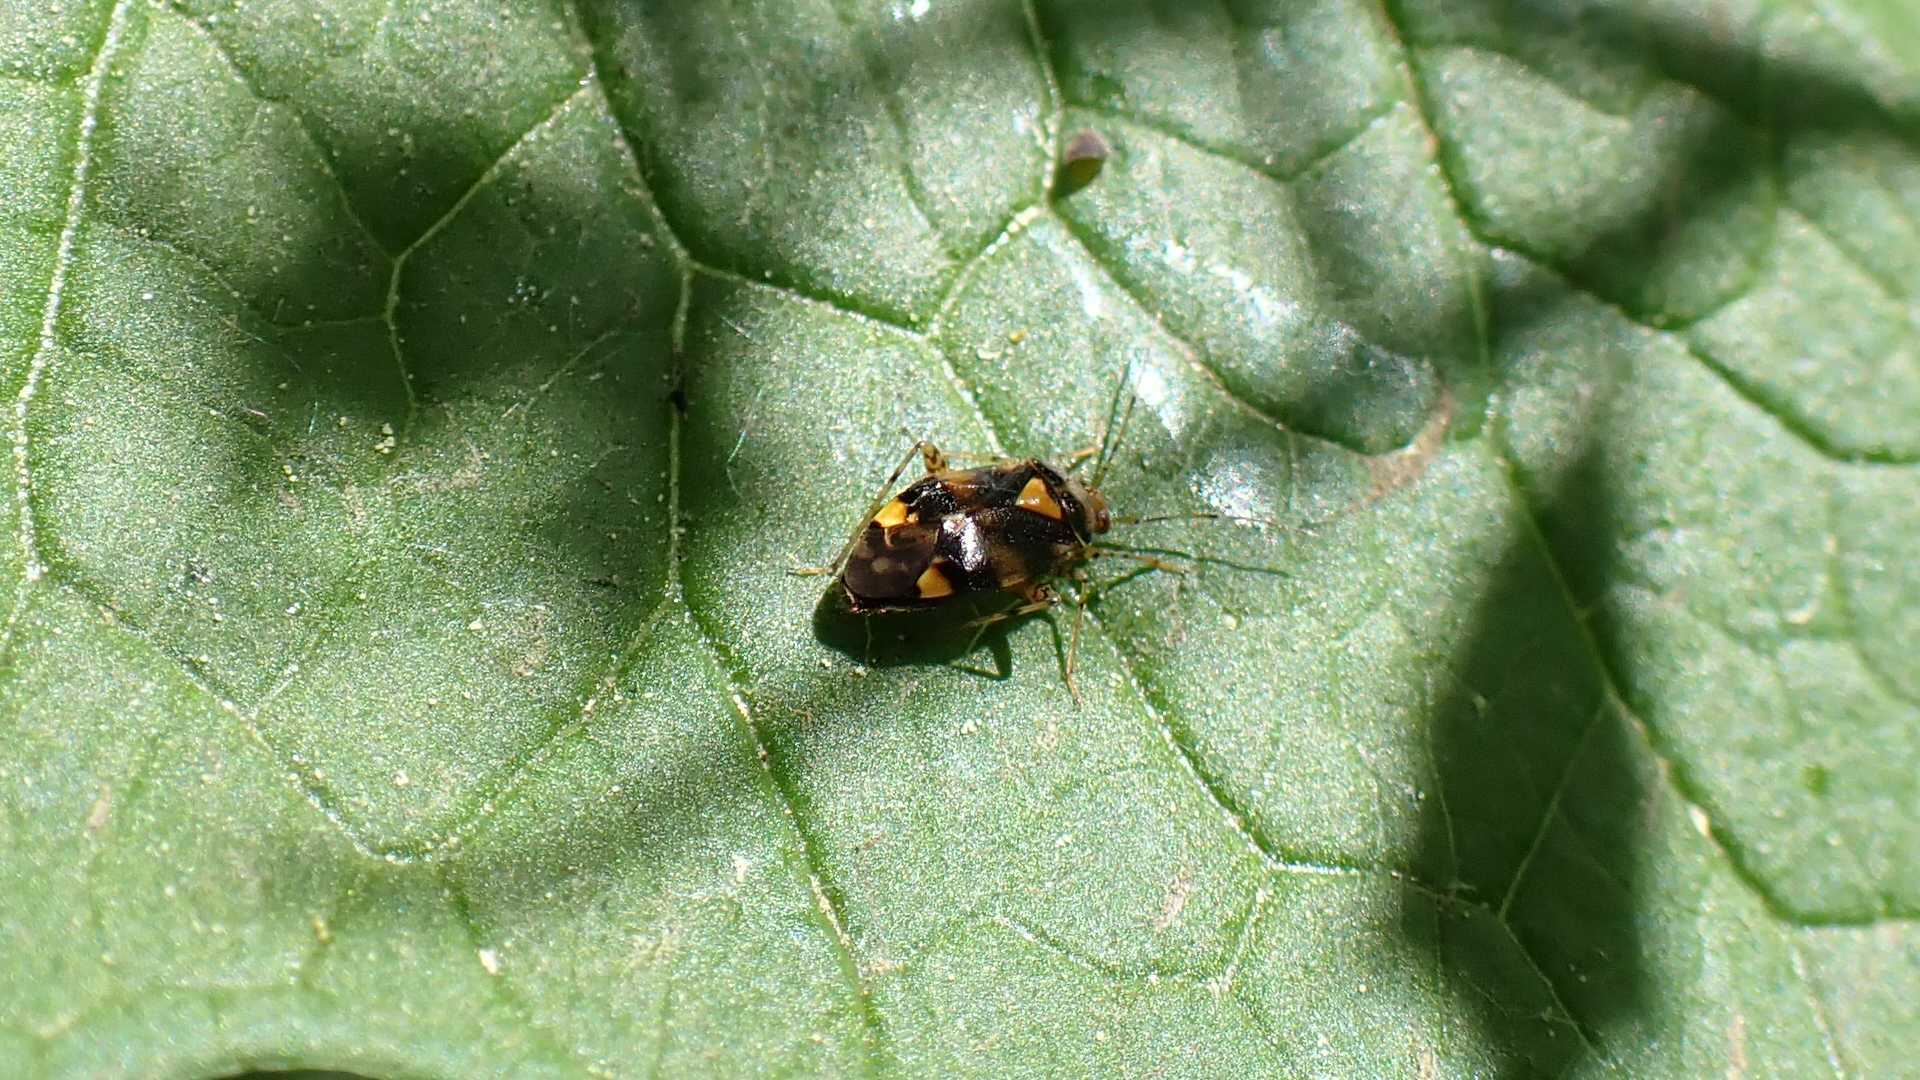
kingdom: Animalia
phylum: Arthropoda
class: Insecta
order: Hemiptera
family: Miridae
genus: Liocoris
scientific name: Liocoris tripustulatus
